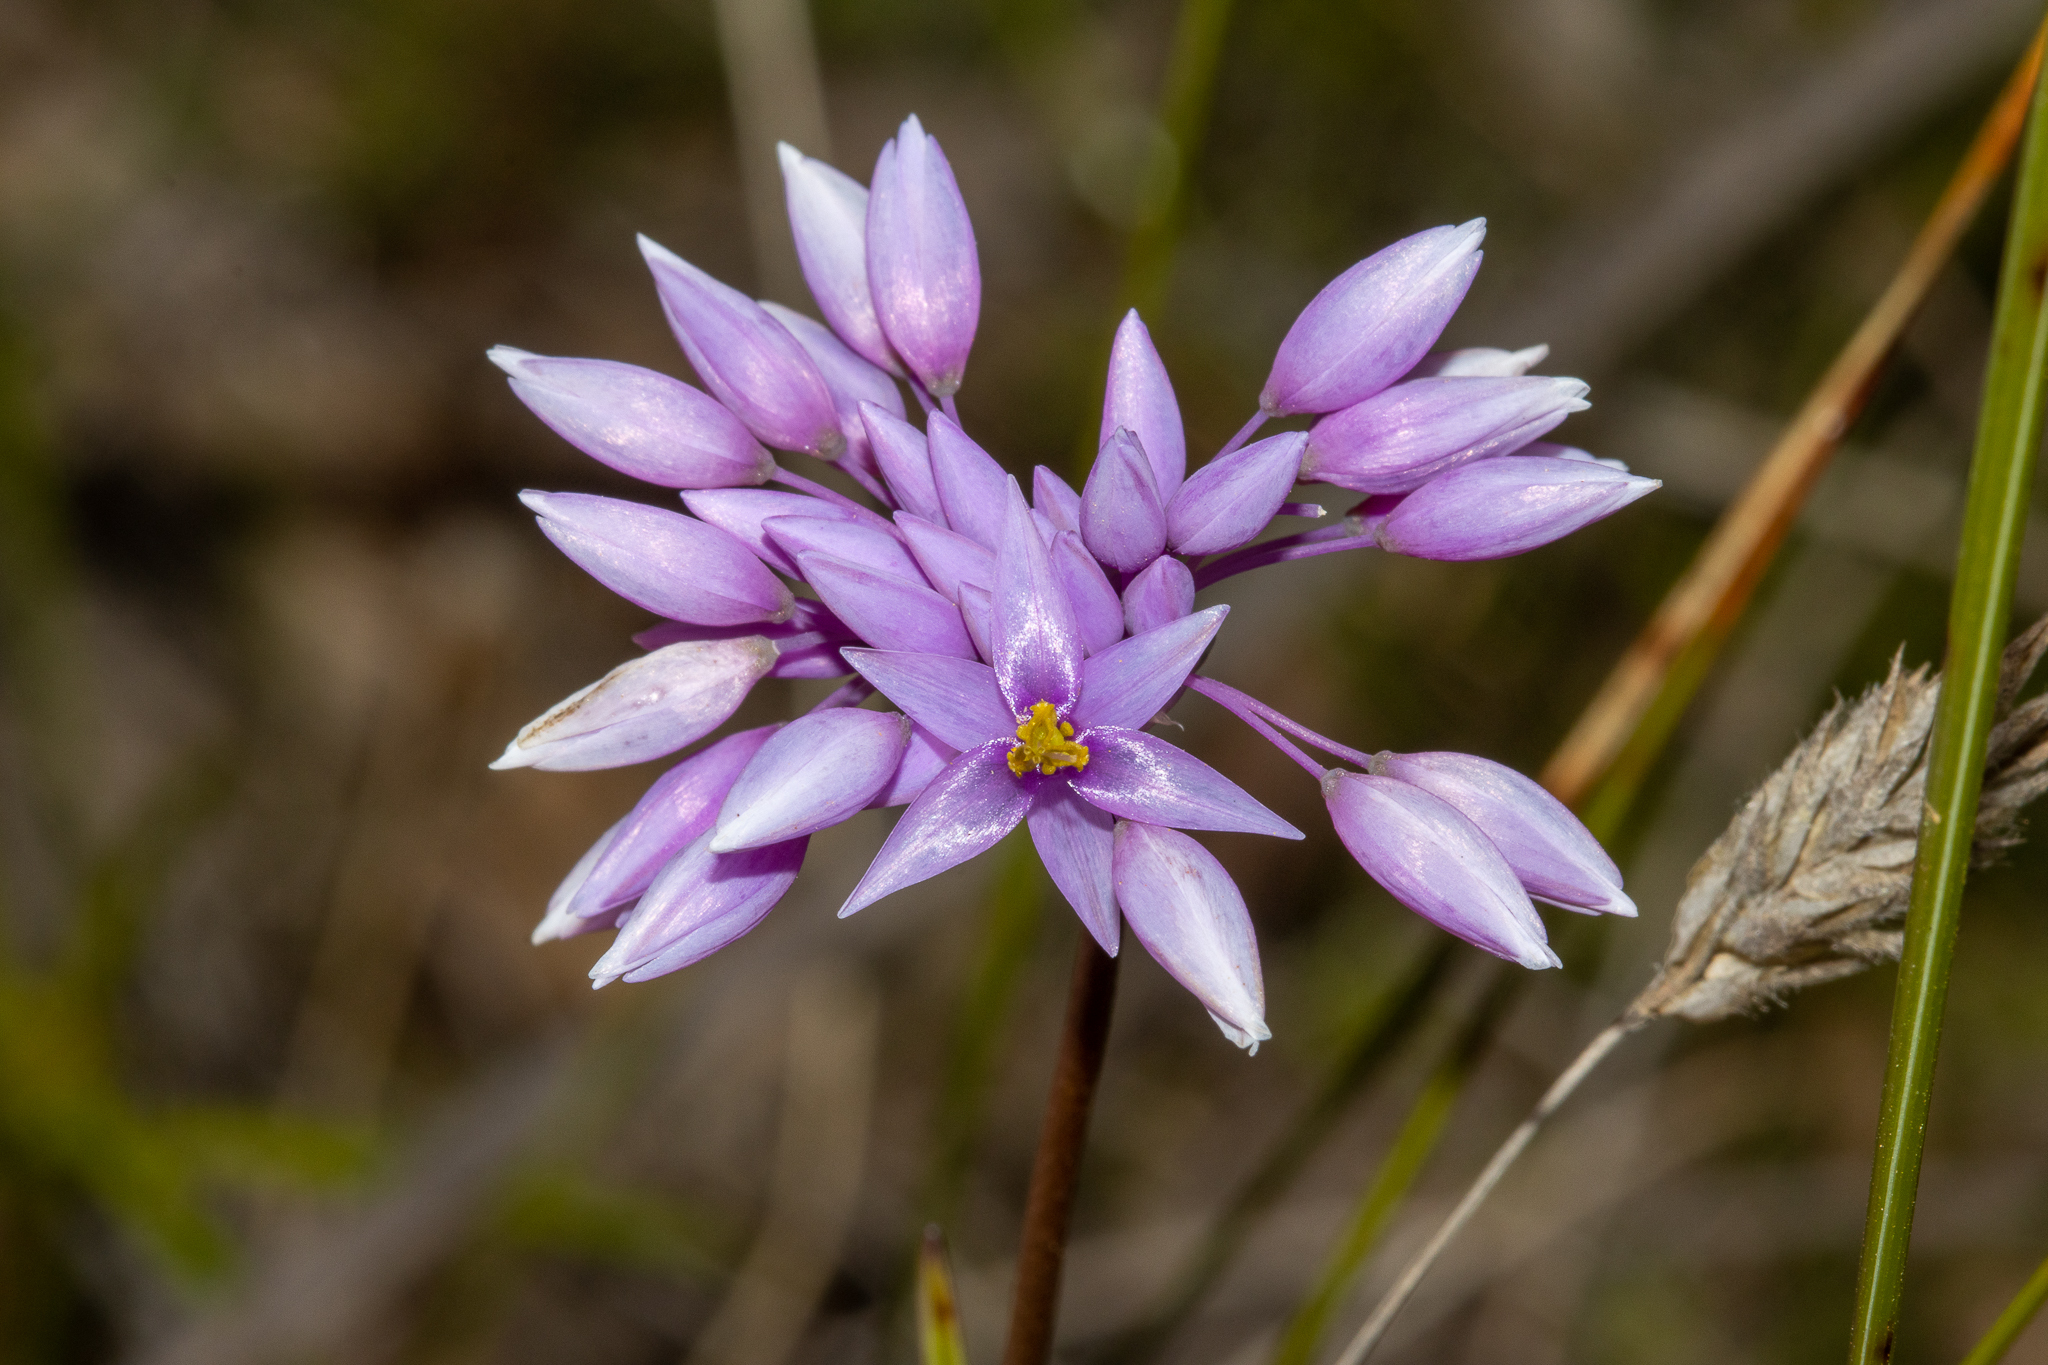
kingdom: Plantae
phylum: Tracheophyta
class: Liliopsida
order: Asparagales
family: Asparagaceae
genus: Sowerbaea
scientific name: Sowerbaea laxiflora
